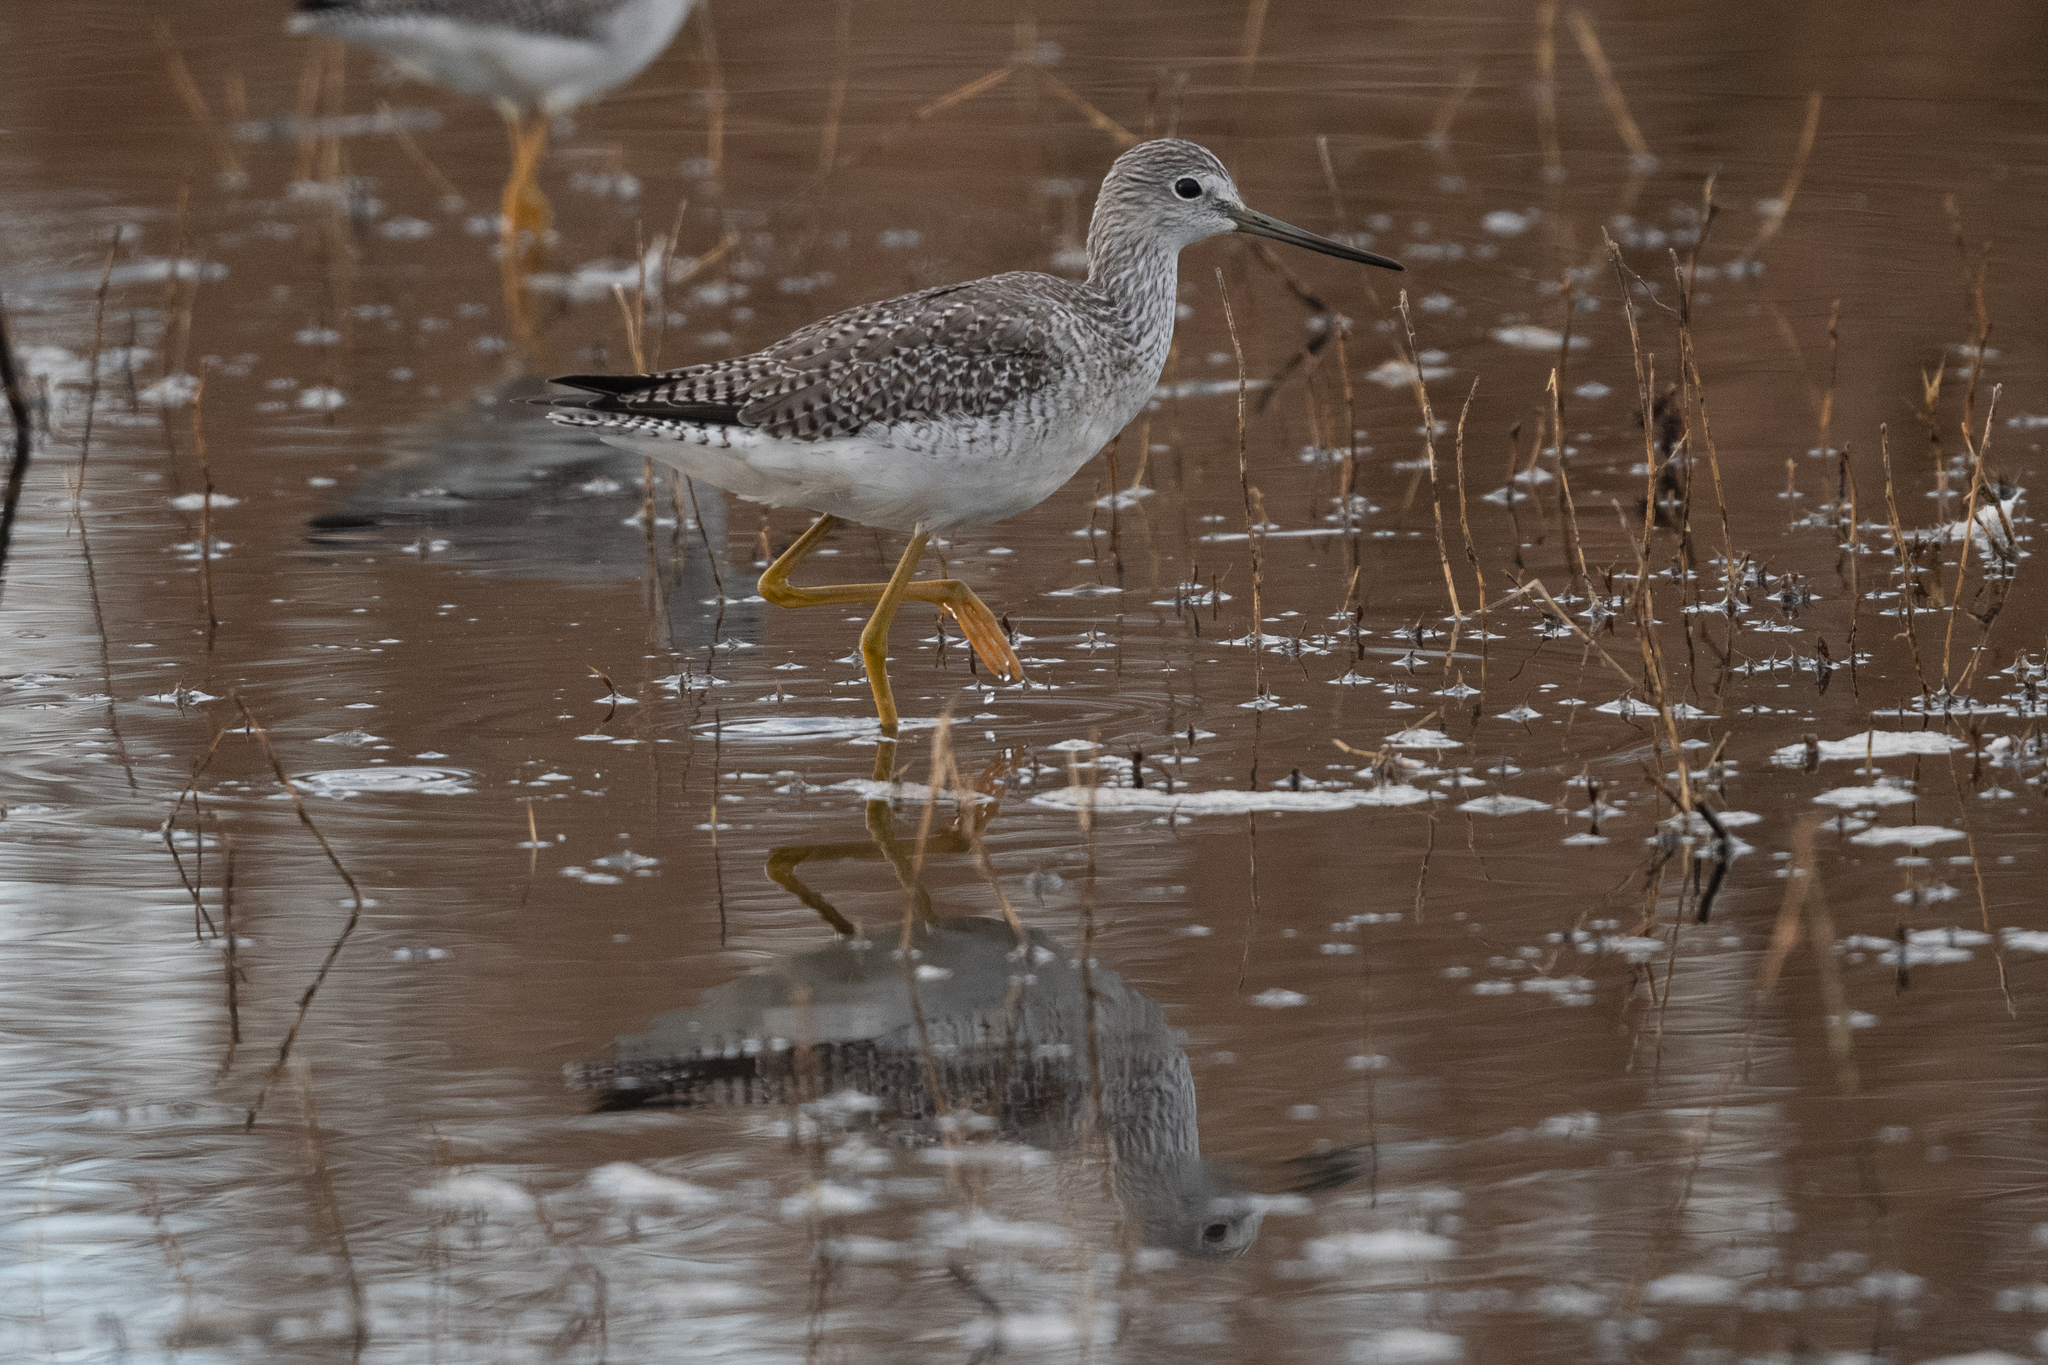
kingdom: Animalia
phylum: Chordata
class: Aves
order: Charadriiformes
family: Scolopacidae
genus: Tringa
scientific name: Tringa melanoleuca
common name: Greater yellowlegs
